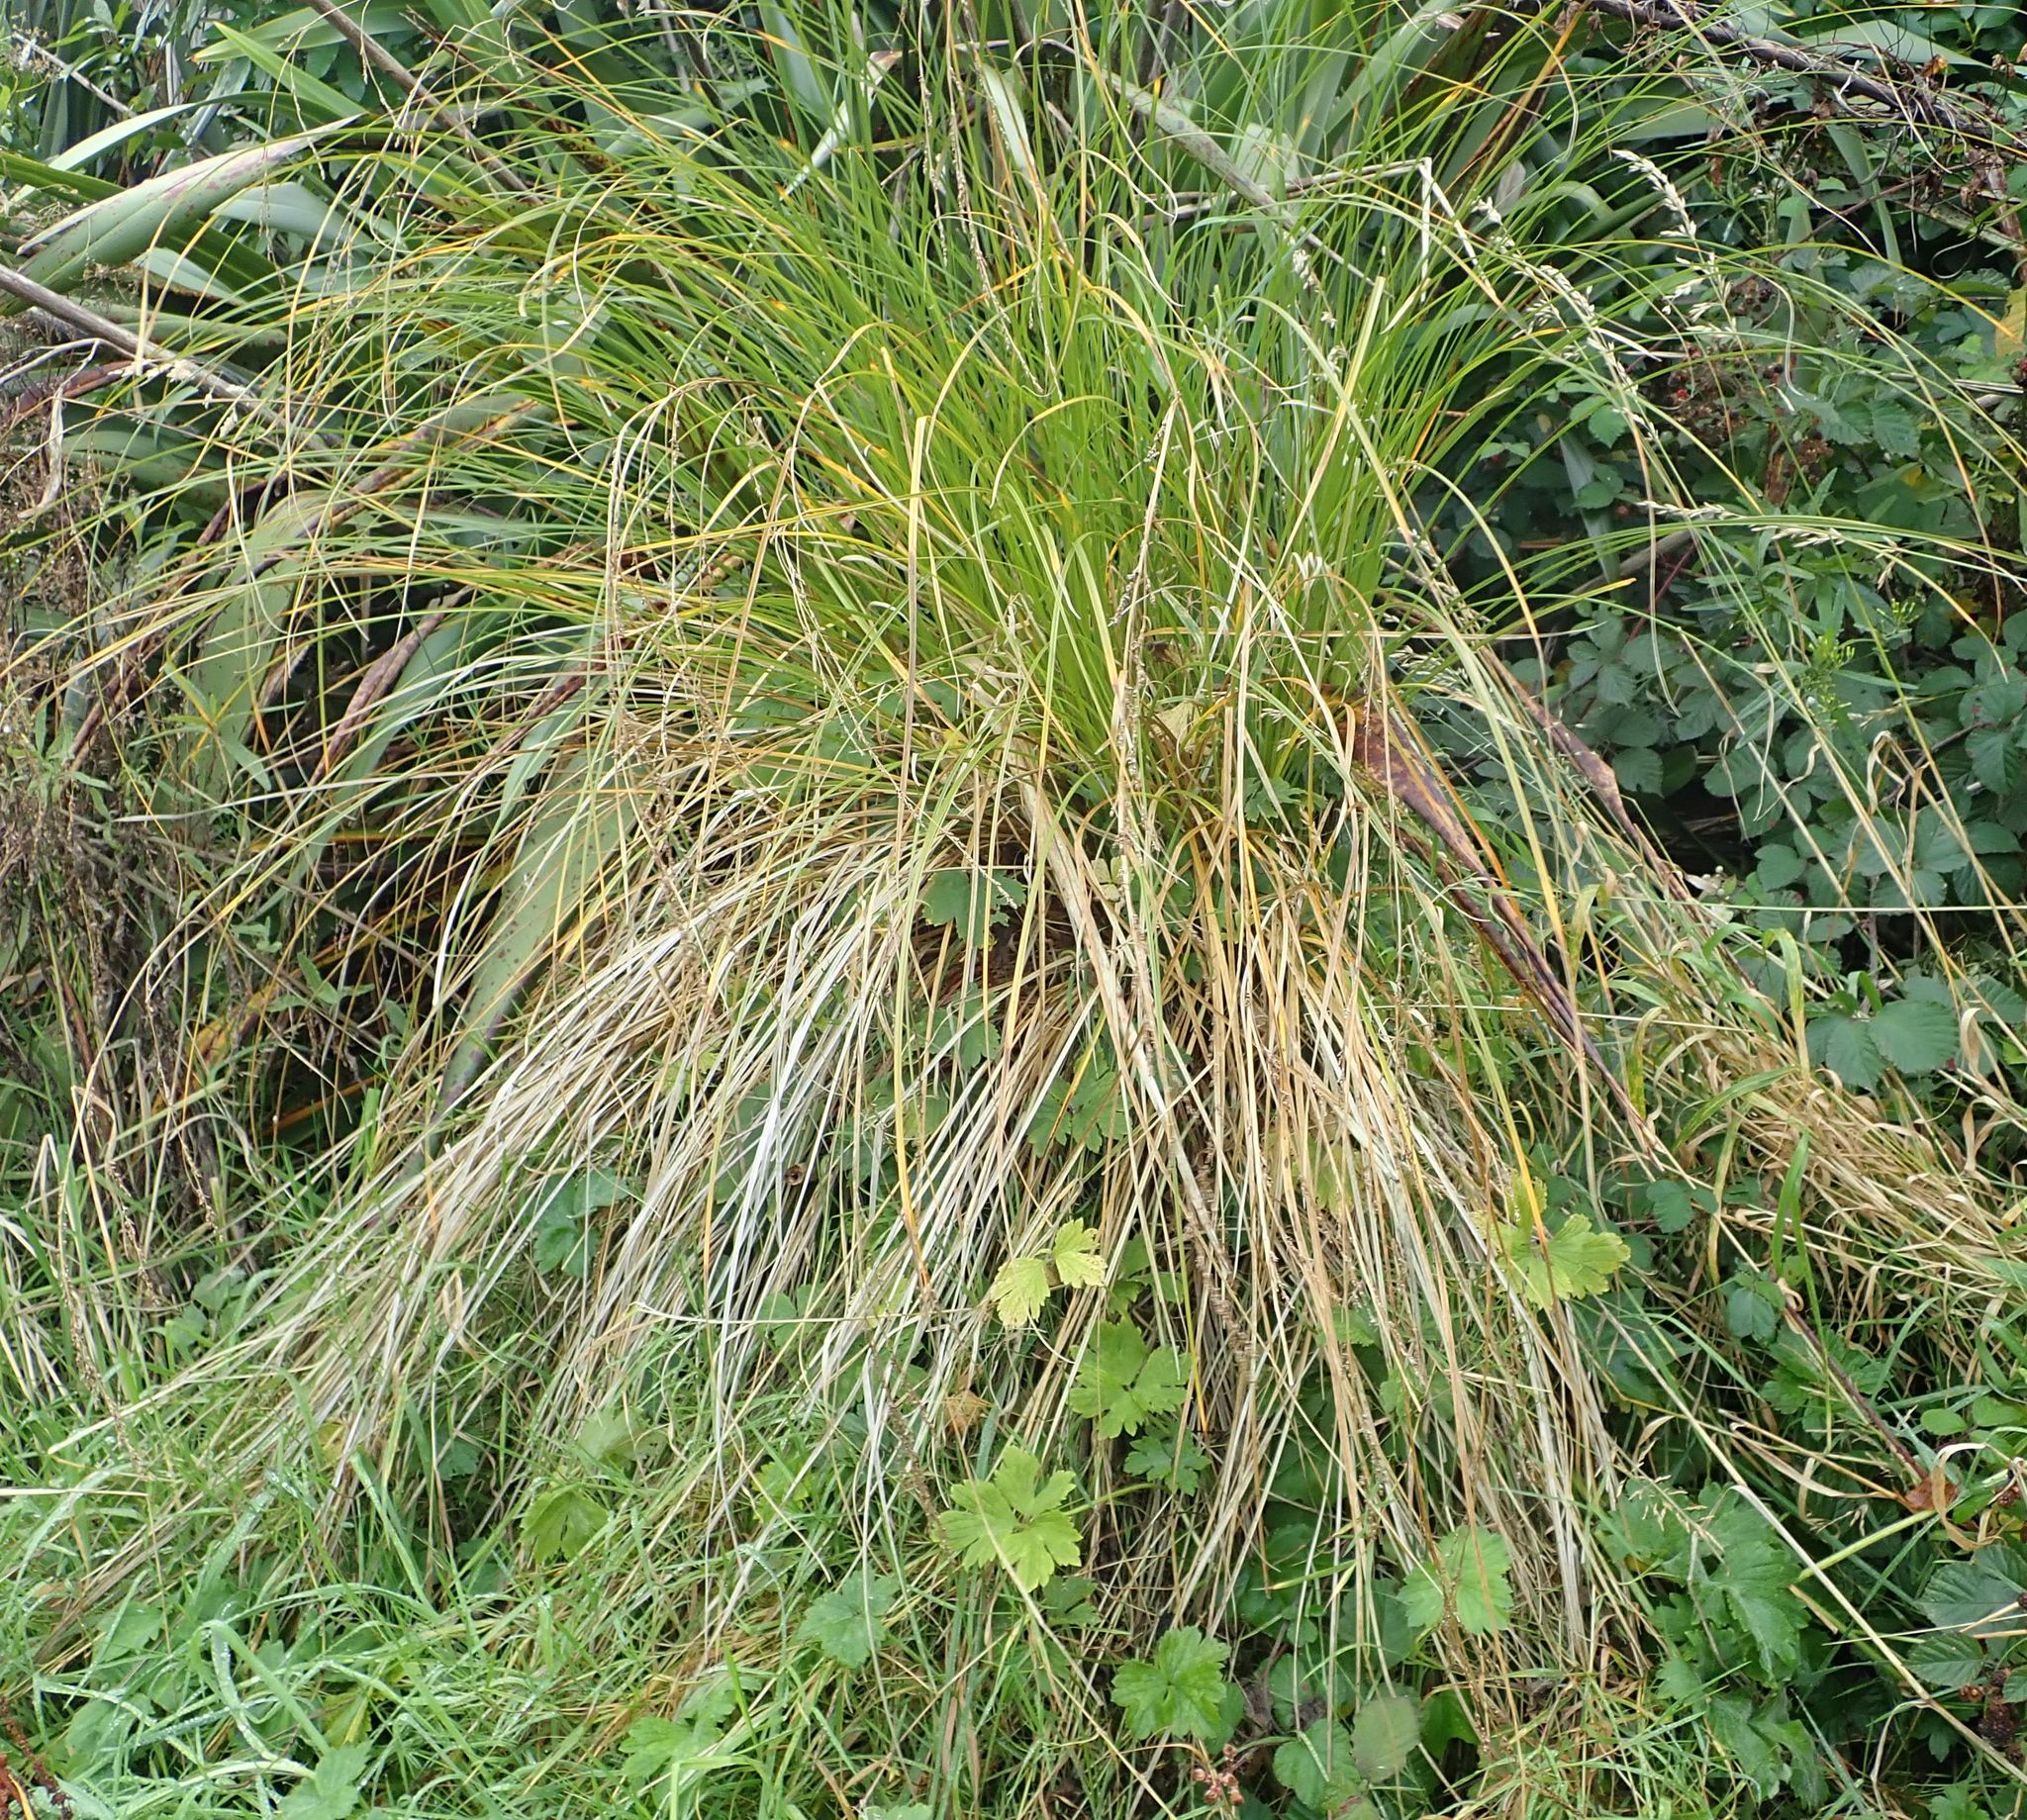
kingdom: Plantae
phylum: Tracheophyta
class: Liliopsida
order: Poales
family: Cyperaceae
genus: Carex
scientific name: Carex secta
